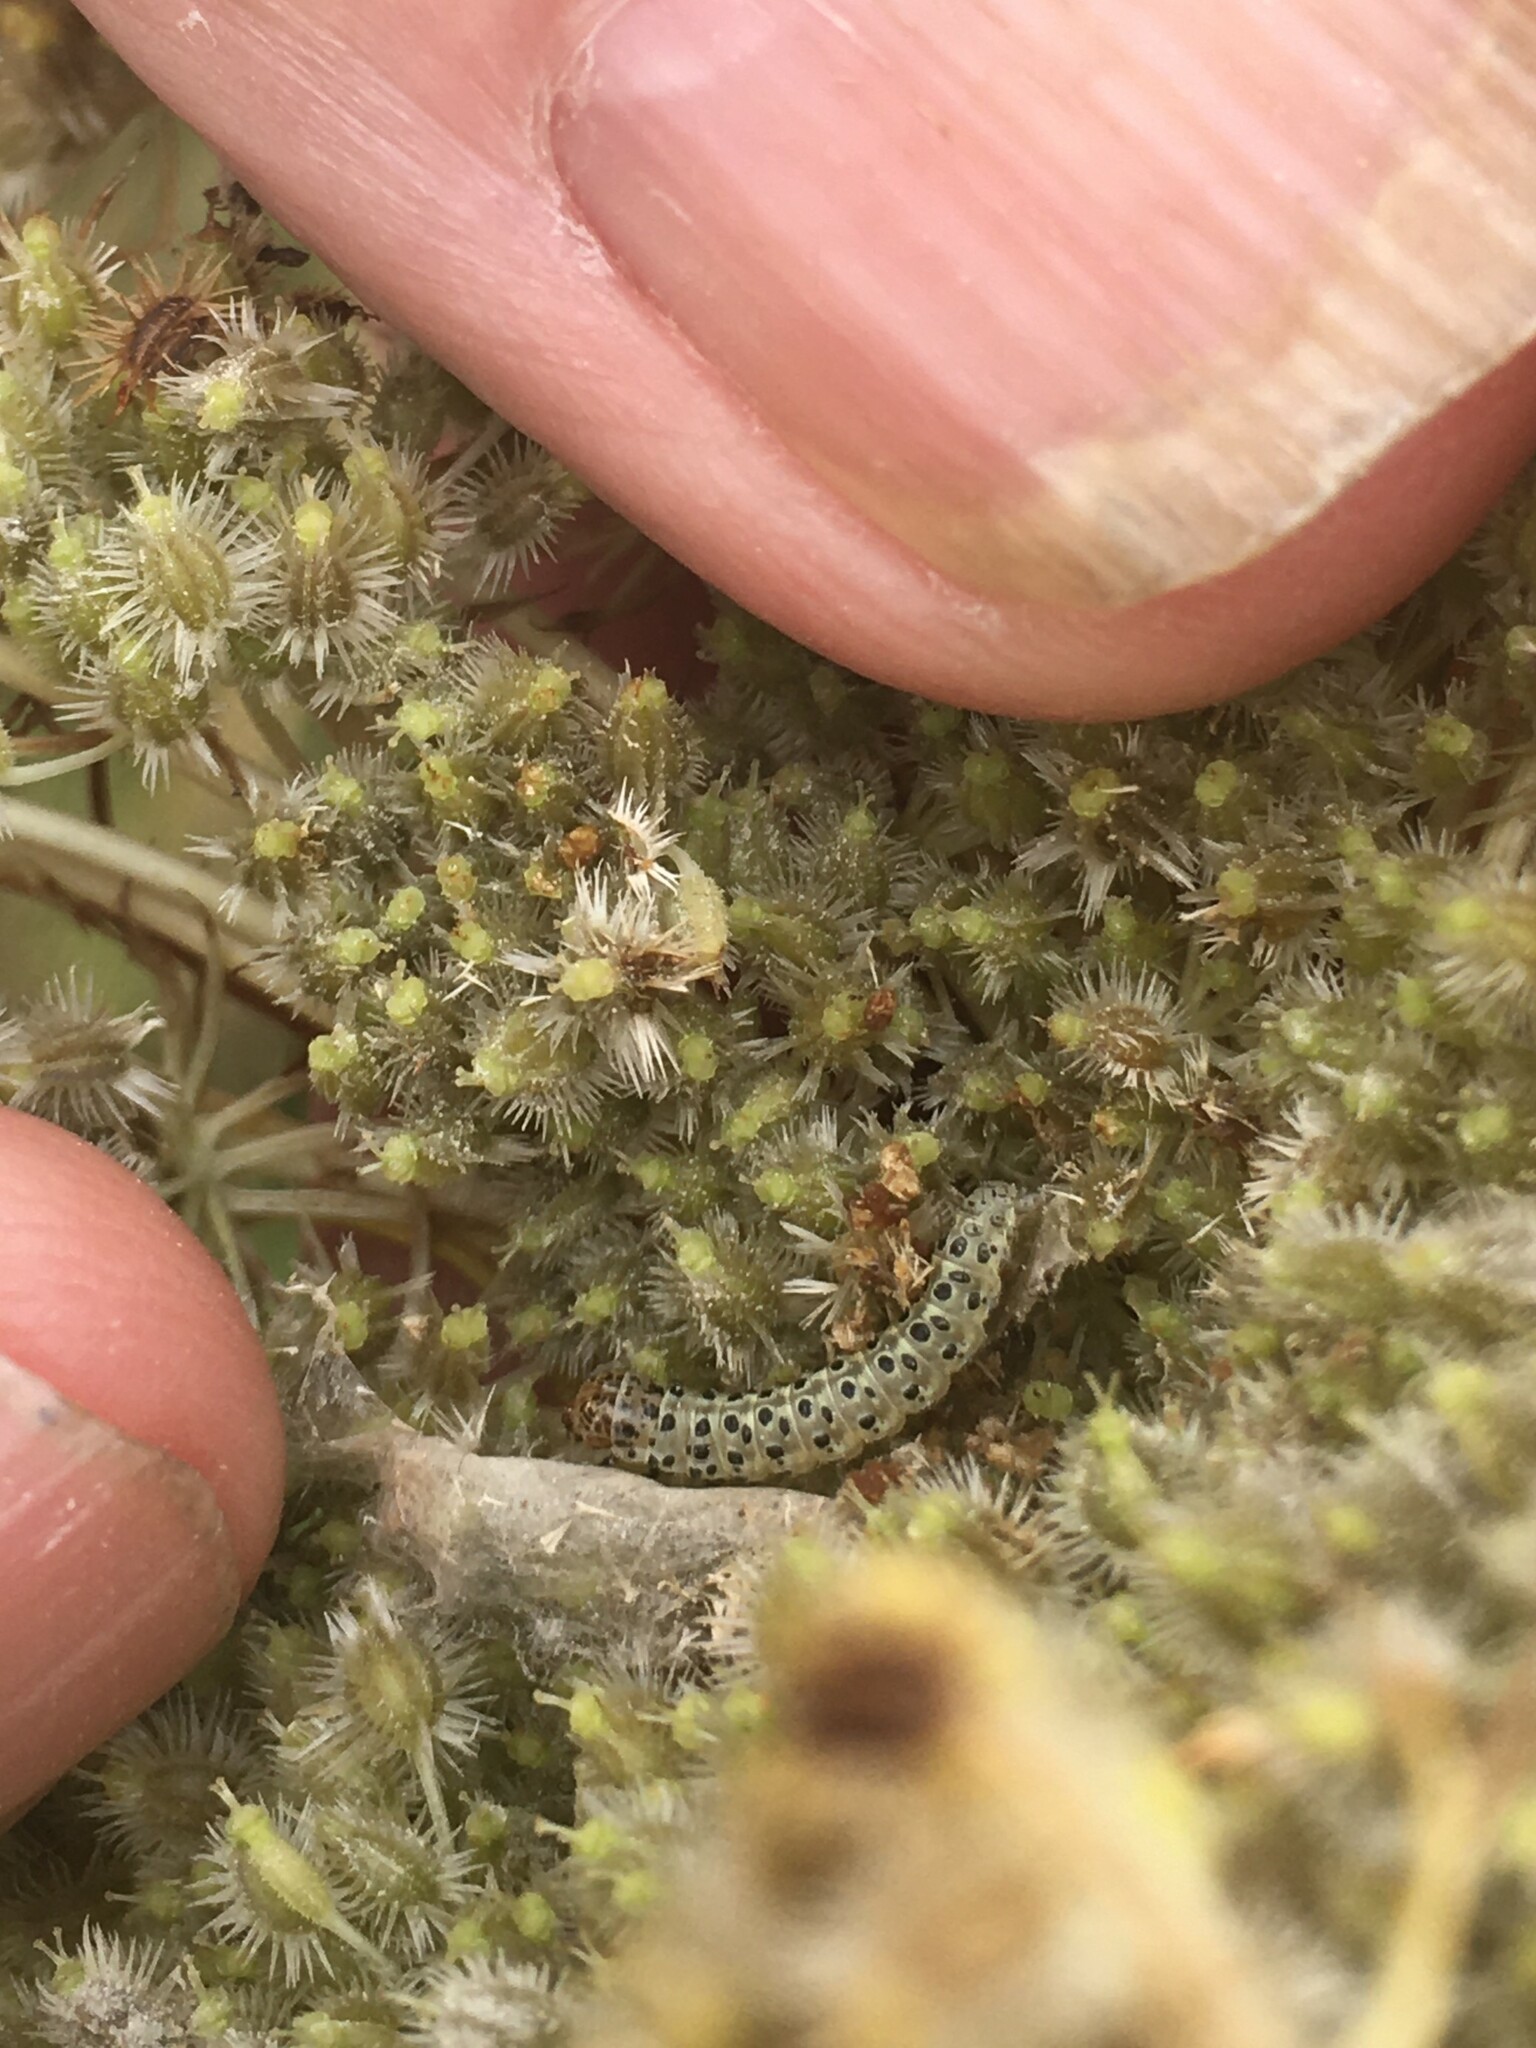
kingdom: Animalia
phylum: Arthropoda
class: Insecta
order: Lepidoptera
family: Crambidae
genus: Sitochroa
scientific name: Sitochroa palealis
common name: Greenish-yellow sitochroa moth
